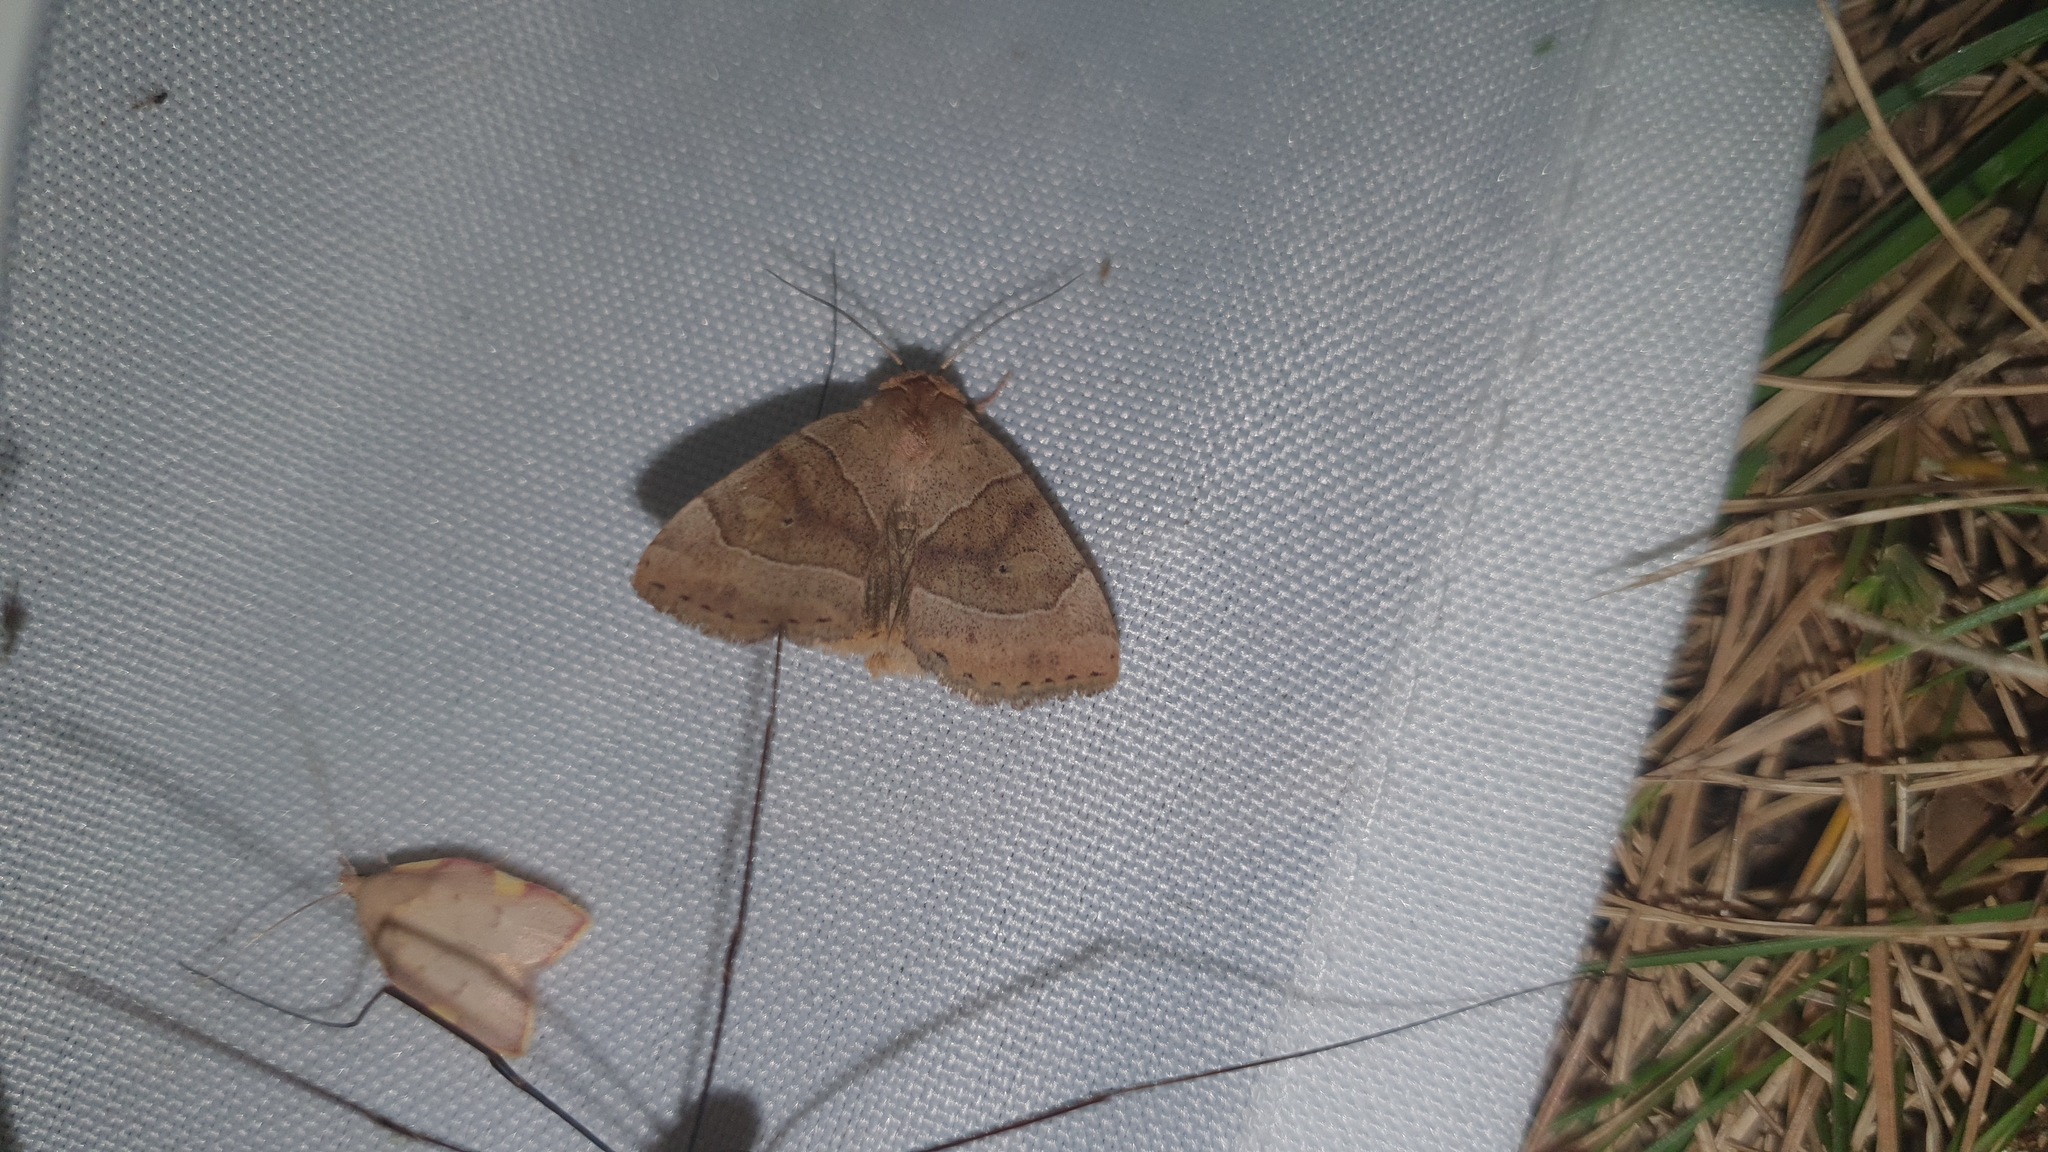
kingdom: Animalia
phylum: Arthropoda
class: Insecta
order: Lepidoptera
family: Noctuidae
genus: Cosmia
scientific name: Cosmia trapezina
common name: Dun-bar
